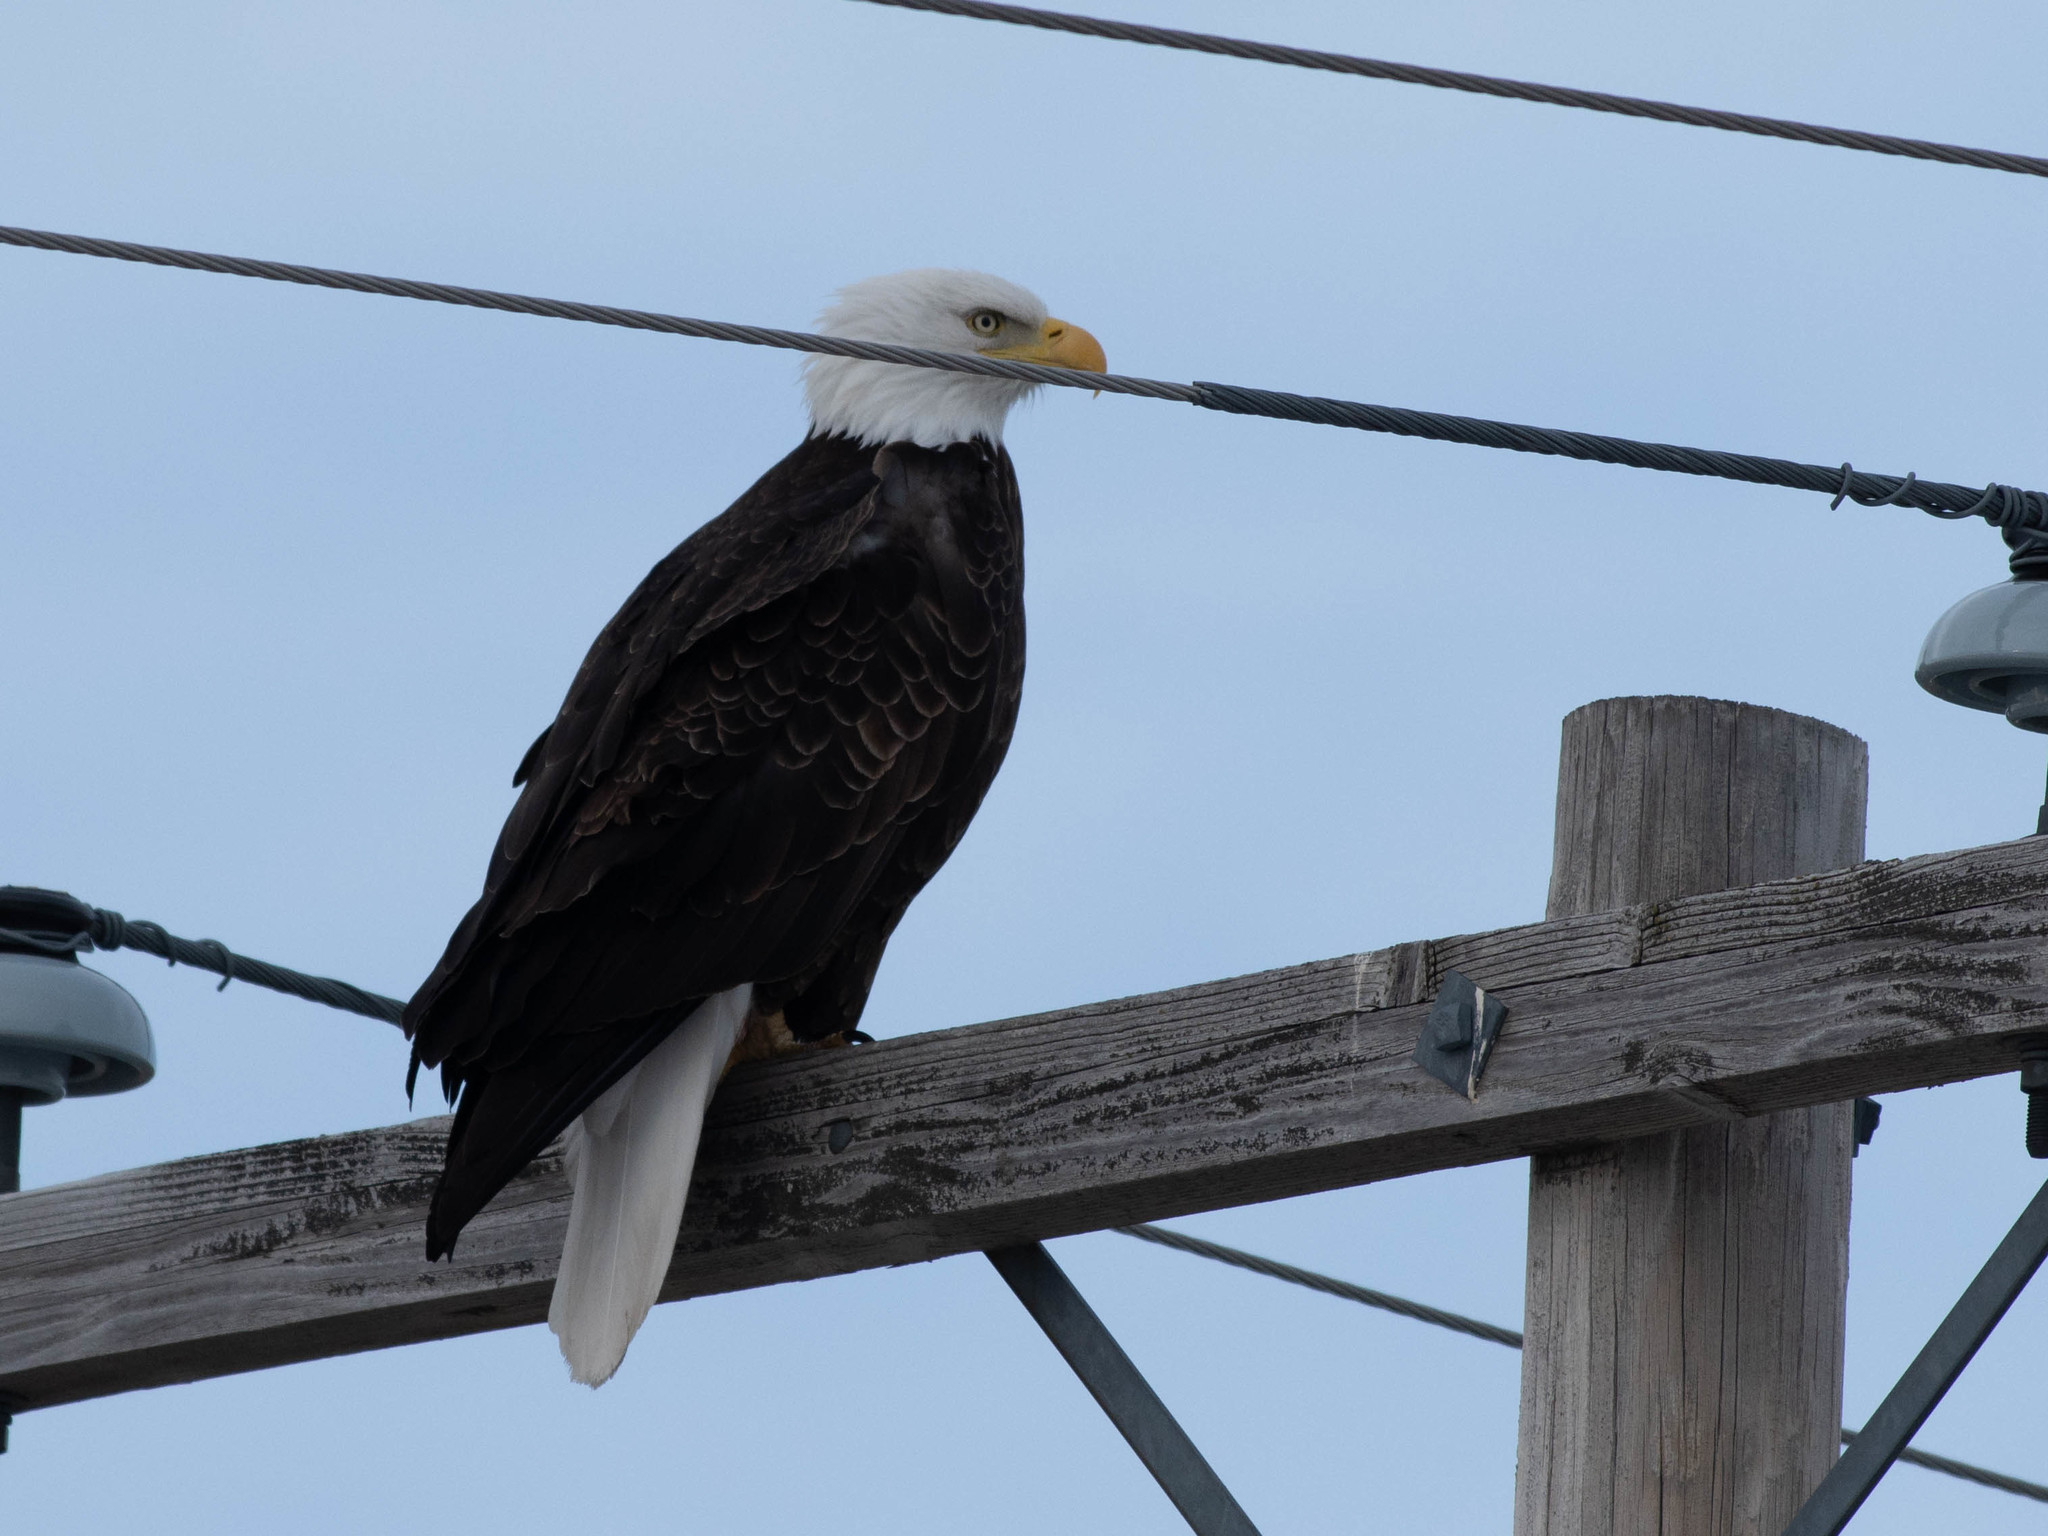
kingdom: Animalia
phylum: Chordata
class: Aves
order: Accipitriformes
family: Accipitridae
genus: Haliaeetus
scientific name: Haliaeetus leucocephalus
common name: Bald eagle
